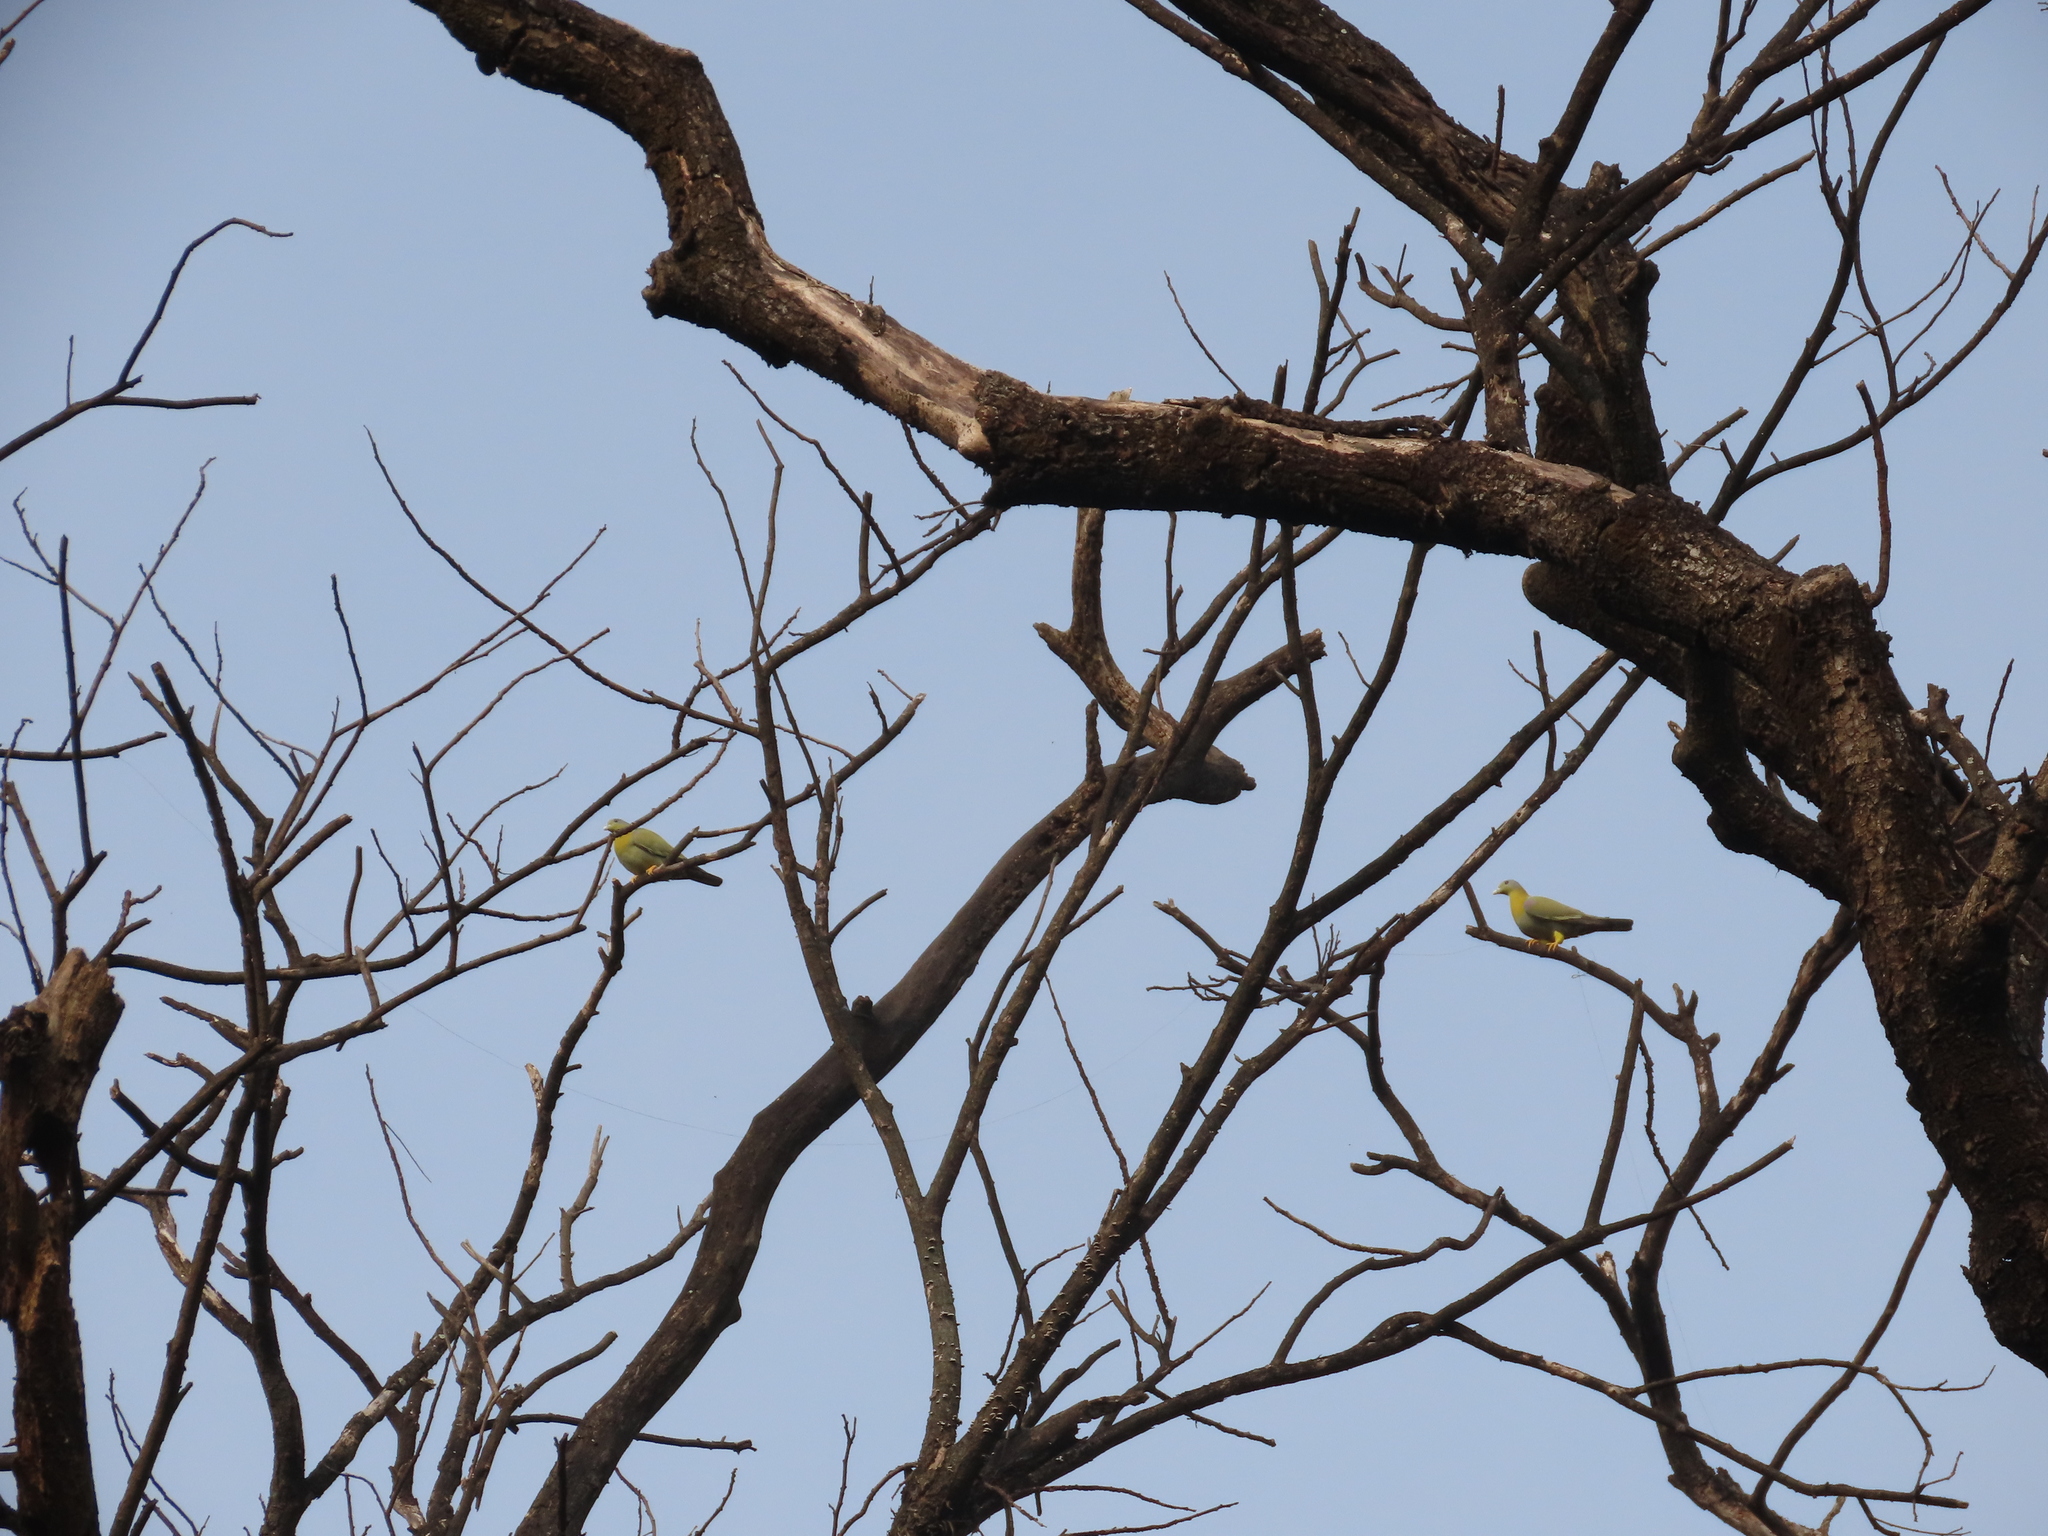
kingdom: Animalia
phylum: Chordata
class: Aves
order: Columbiformes
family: Columbidae
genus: Treron
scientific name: Treron phoenicopterus
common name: Yellow-footed green pigeon
